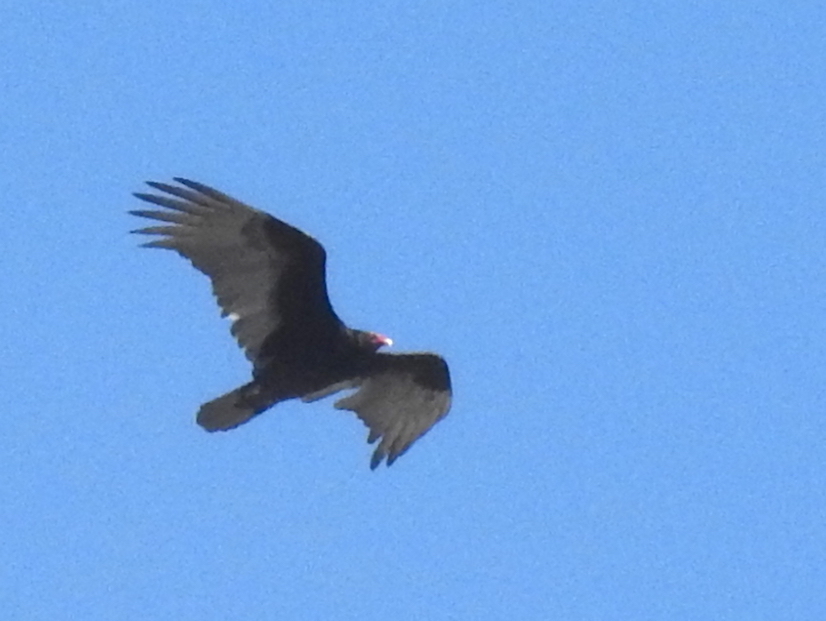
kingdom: Animalia
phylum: Chordata
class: Aves
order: Accipitriformes
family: Cathartidae
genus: Cathartes
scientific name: Cathartes aura
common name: Turkey vulture
